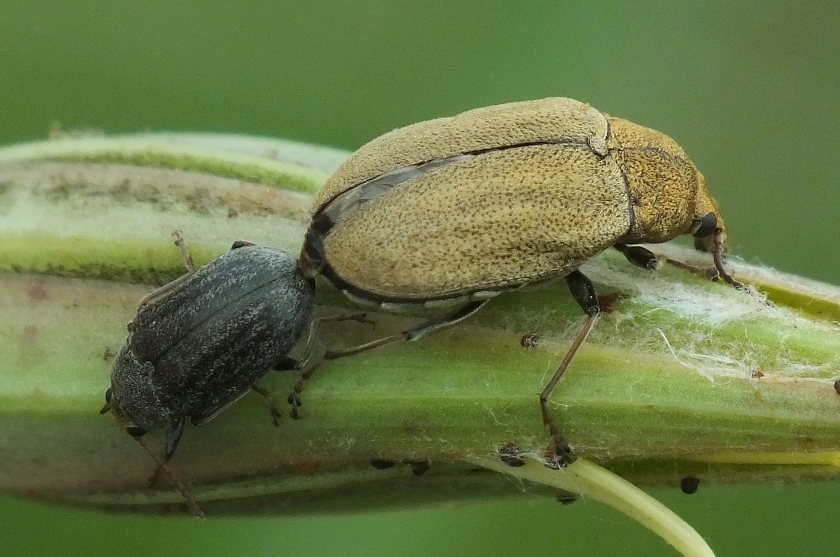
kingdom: Animalia
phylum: Arthropoda
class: Insecta
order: Coleoptera
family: Mycteridae
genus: Mycterus
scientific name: Mycterus tibialis
